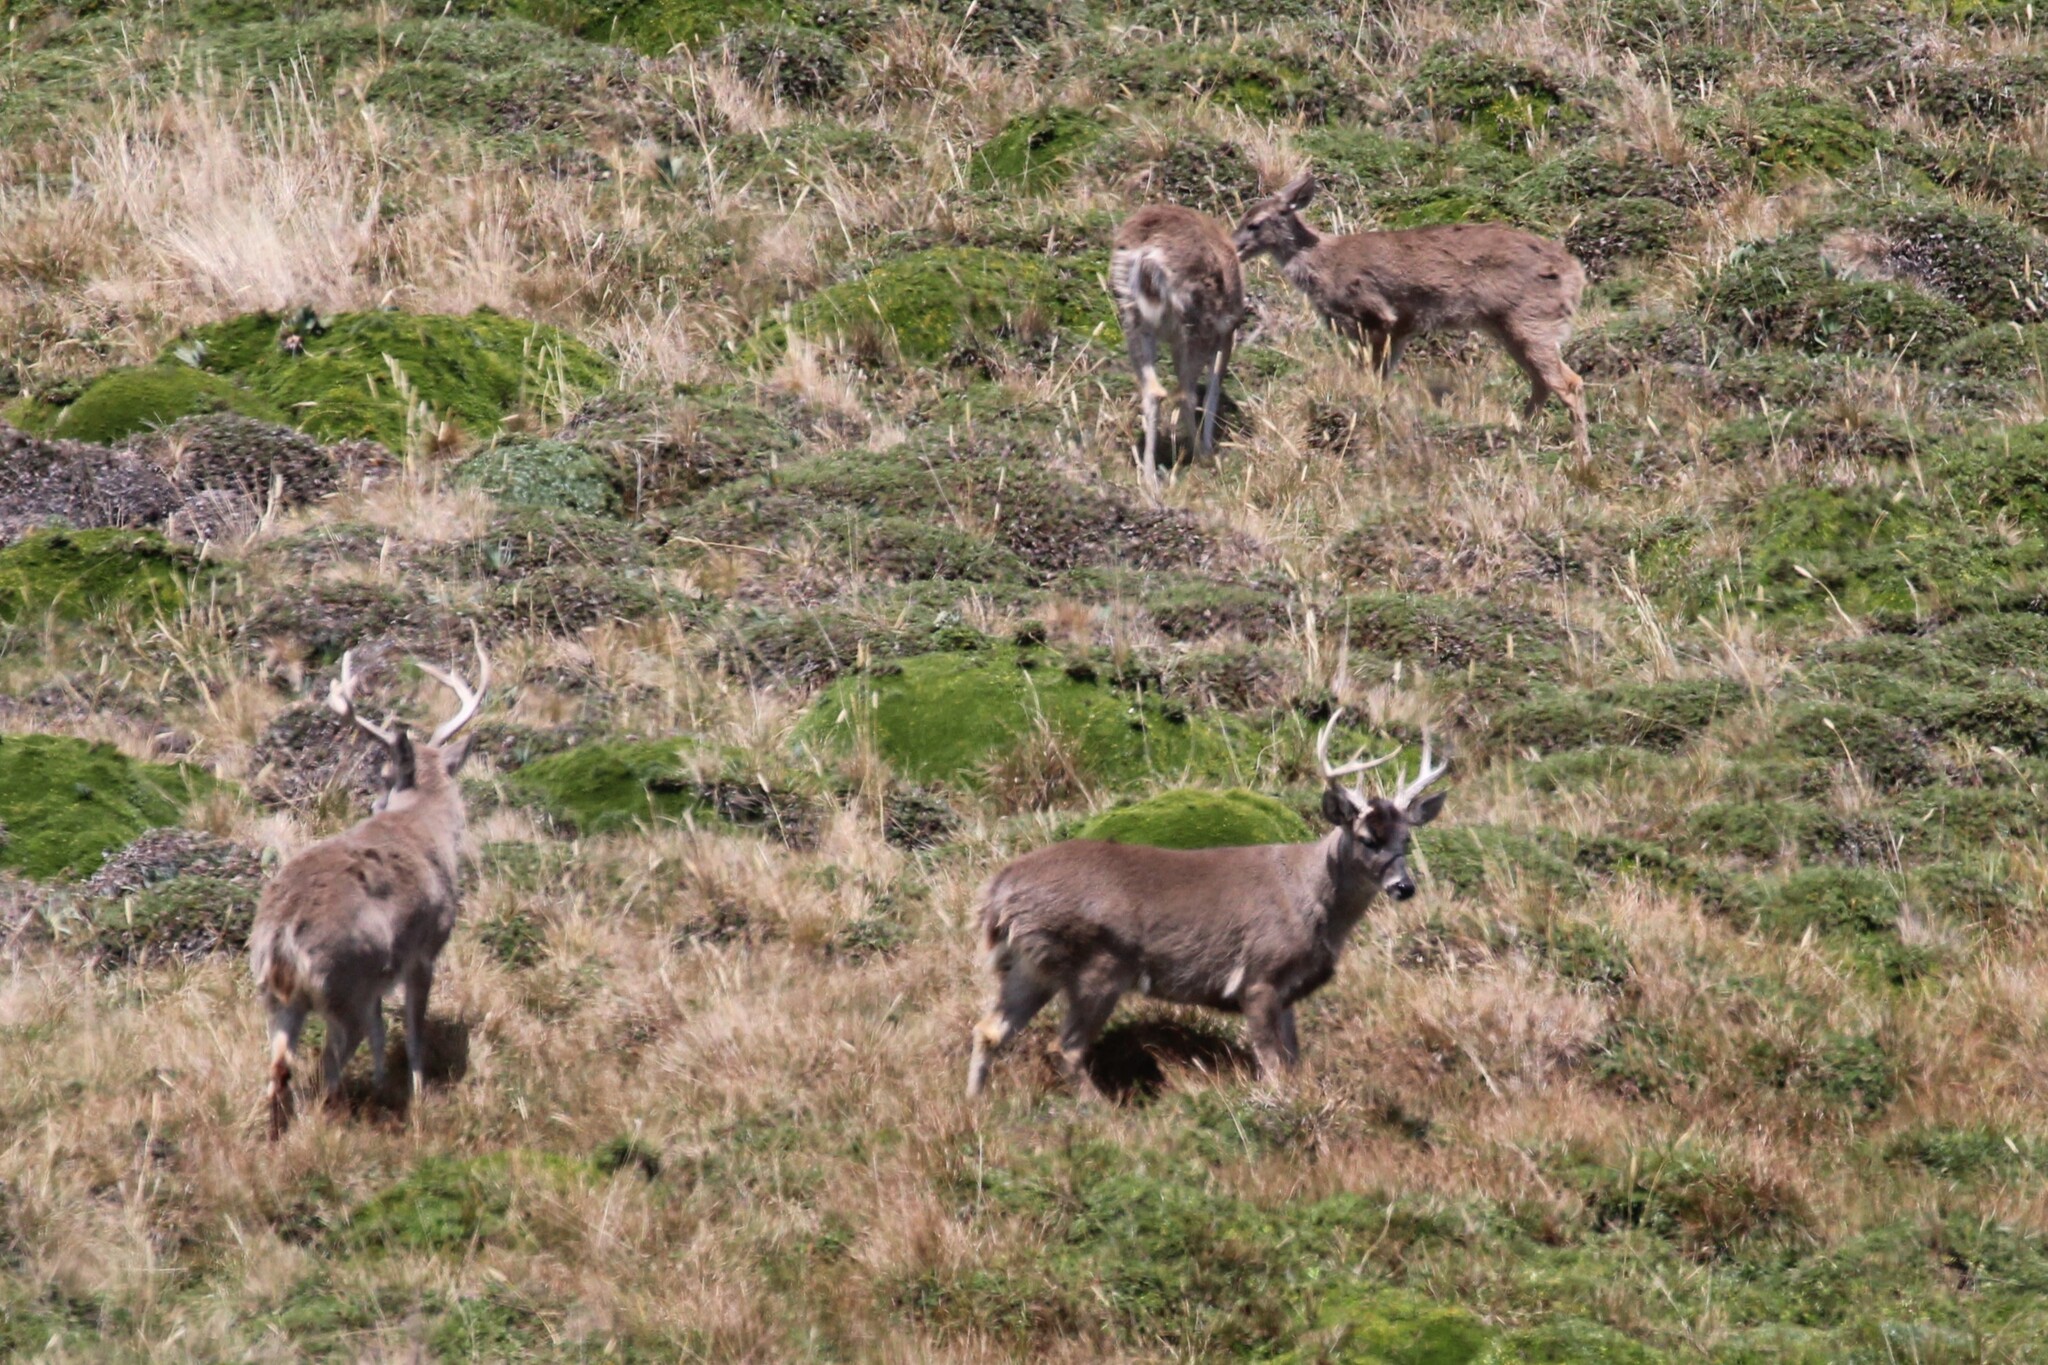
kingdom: Animalia
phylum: Chordata
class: Mammalia
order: Artiodactyla
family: Cervidae
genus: Odocoileus
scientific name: Odocoileus virginianus
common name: White-tailed deer
